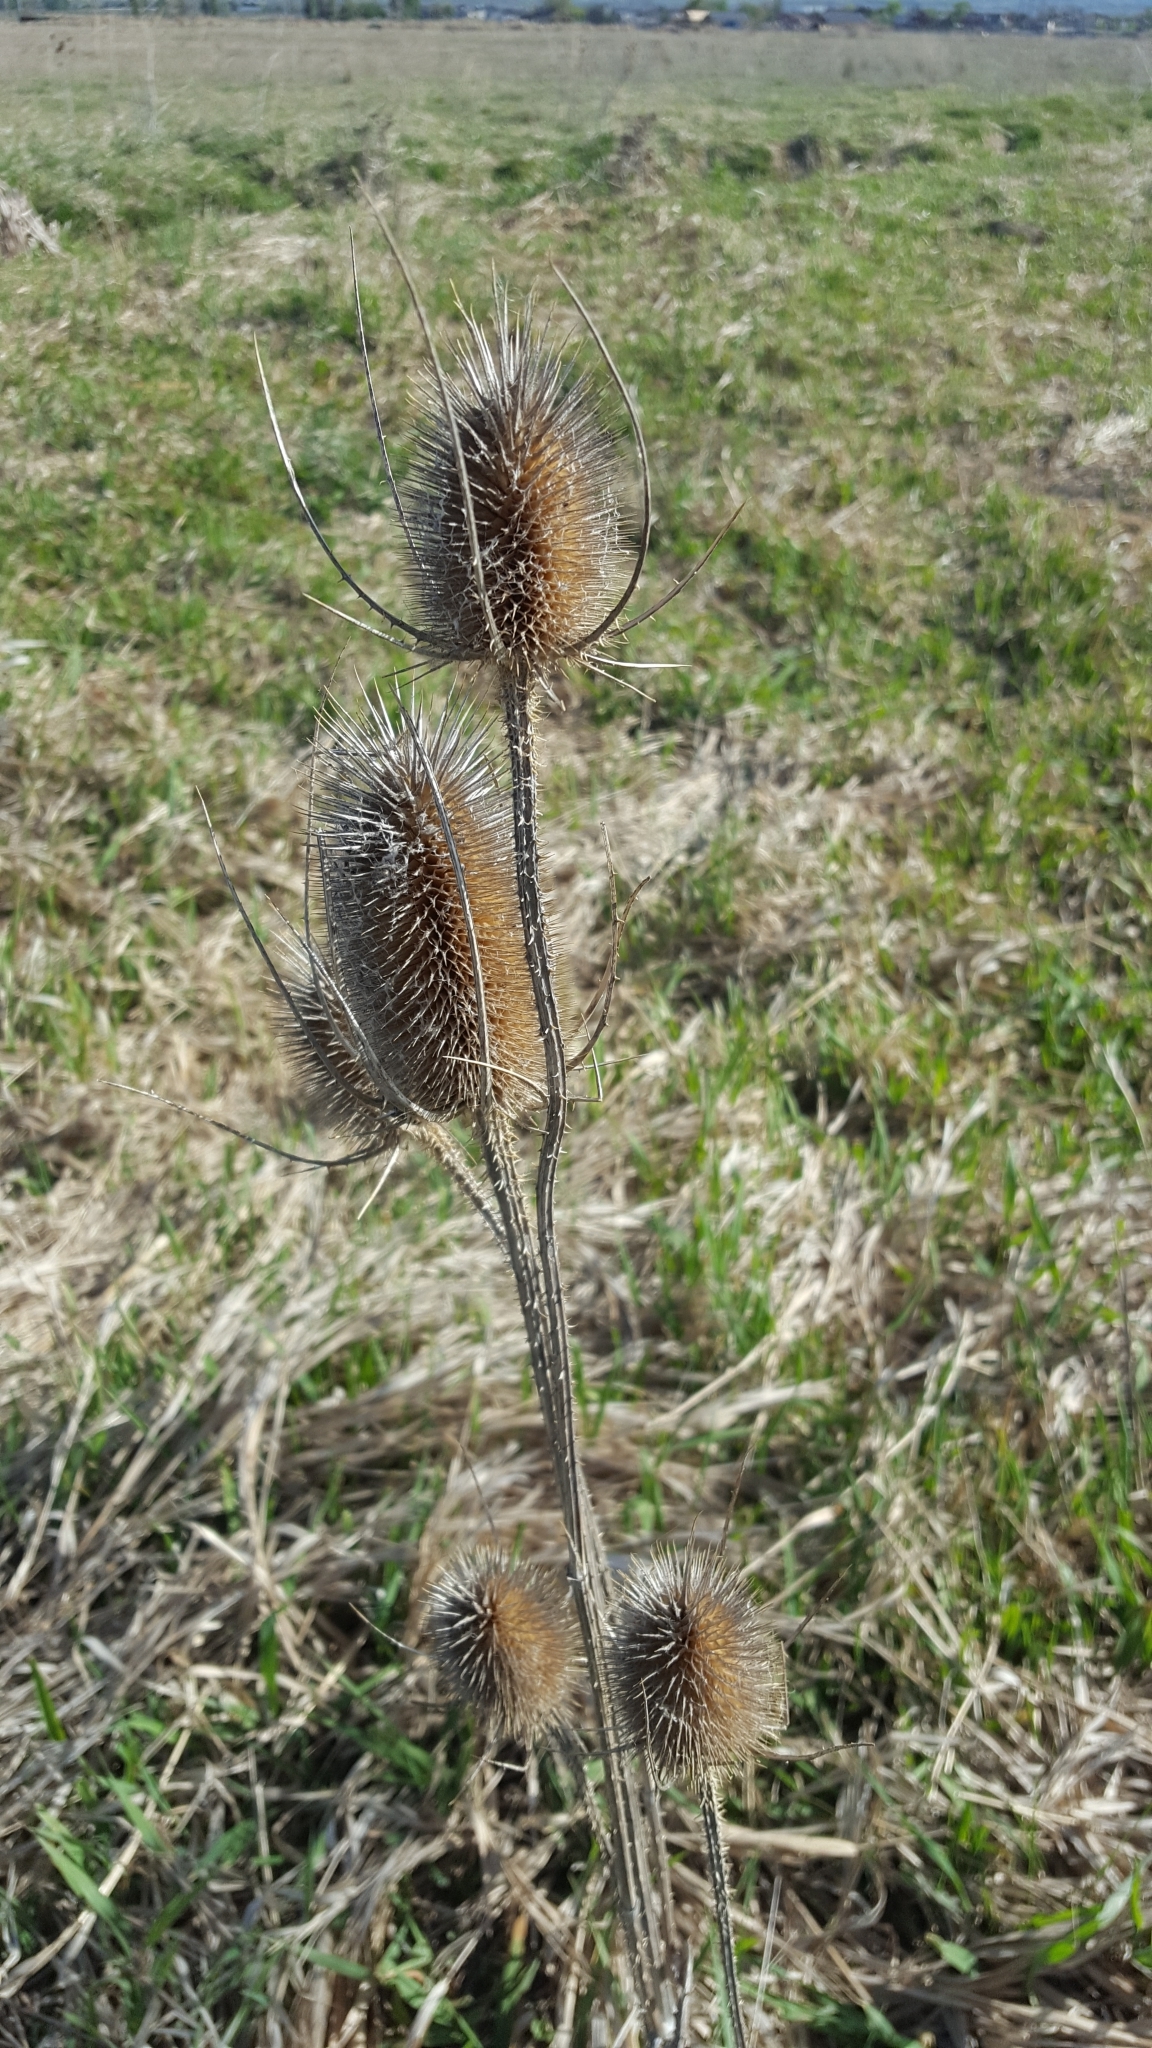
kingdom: Plantae
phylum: Tracheophyta
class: Magnoliopsida
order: Dipsacales
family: Caprifoliaceae
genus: Dipsacus
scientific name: Dipsacus fullonum
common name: Teasel
